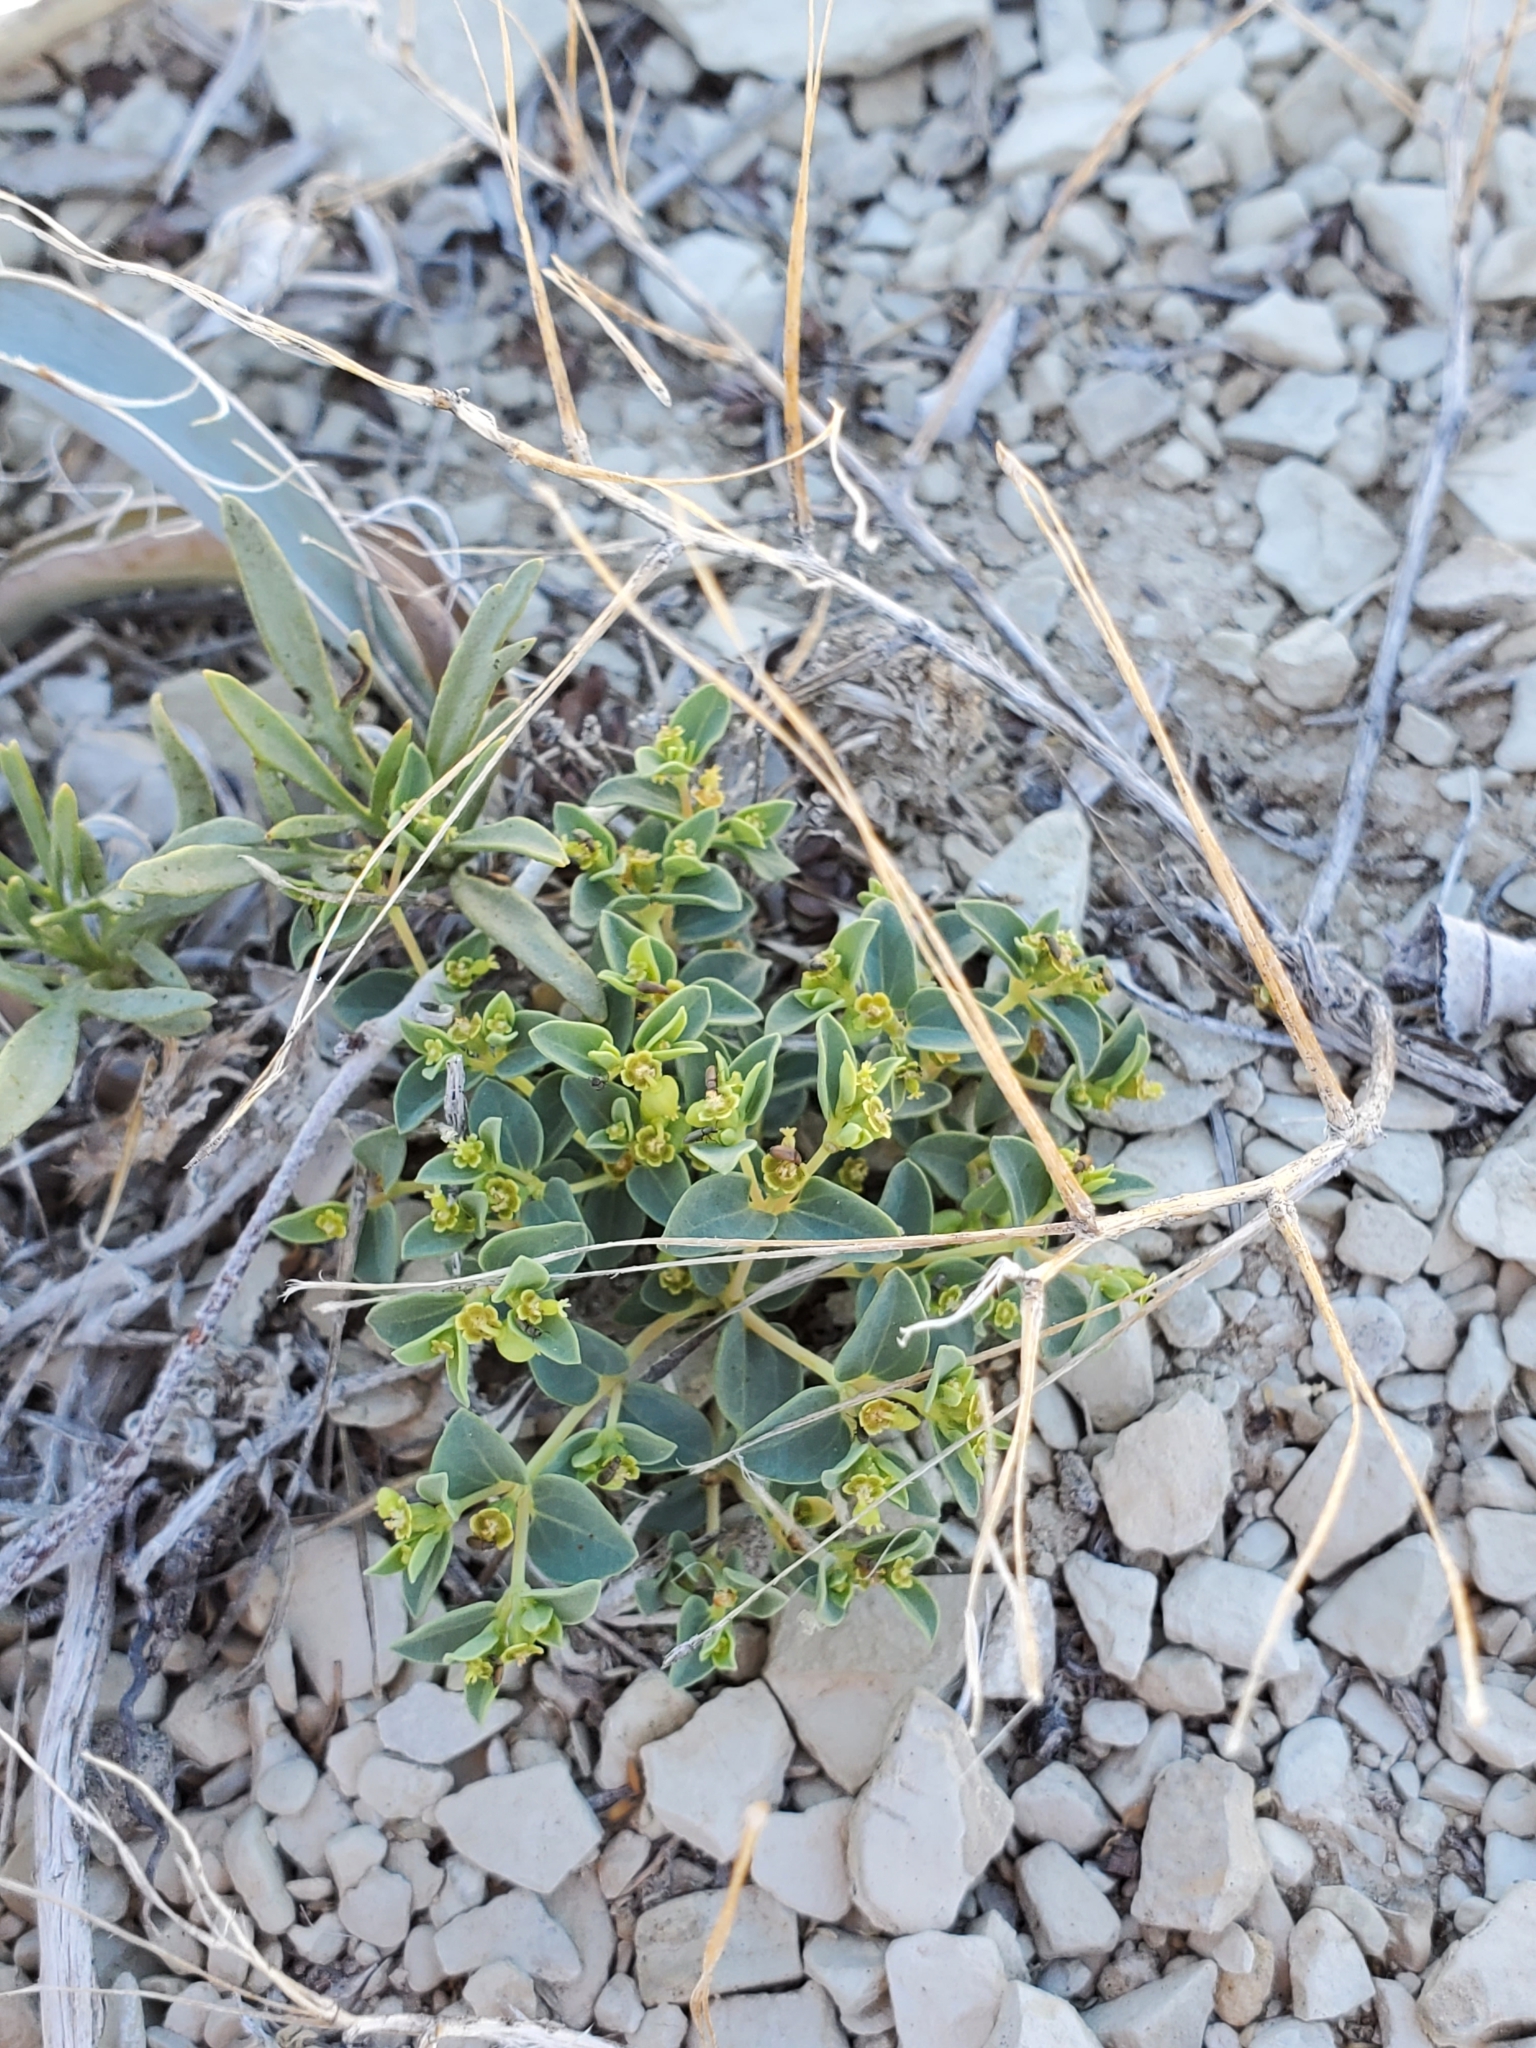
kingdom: Plantae
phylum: Tracheophyta
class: Magnoliopsida
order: Malpighiales
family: Euphorbiaceae
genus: Euphorbia
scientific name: Euphorbia fendleri
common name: Fendler's euphorbia
